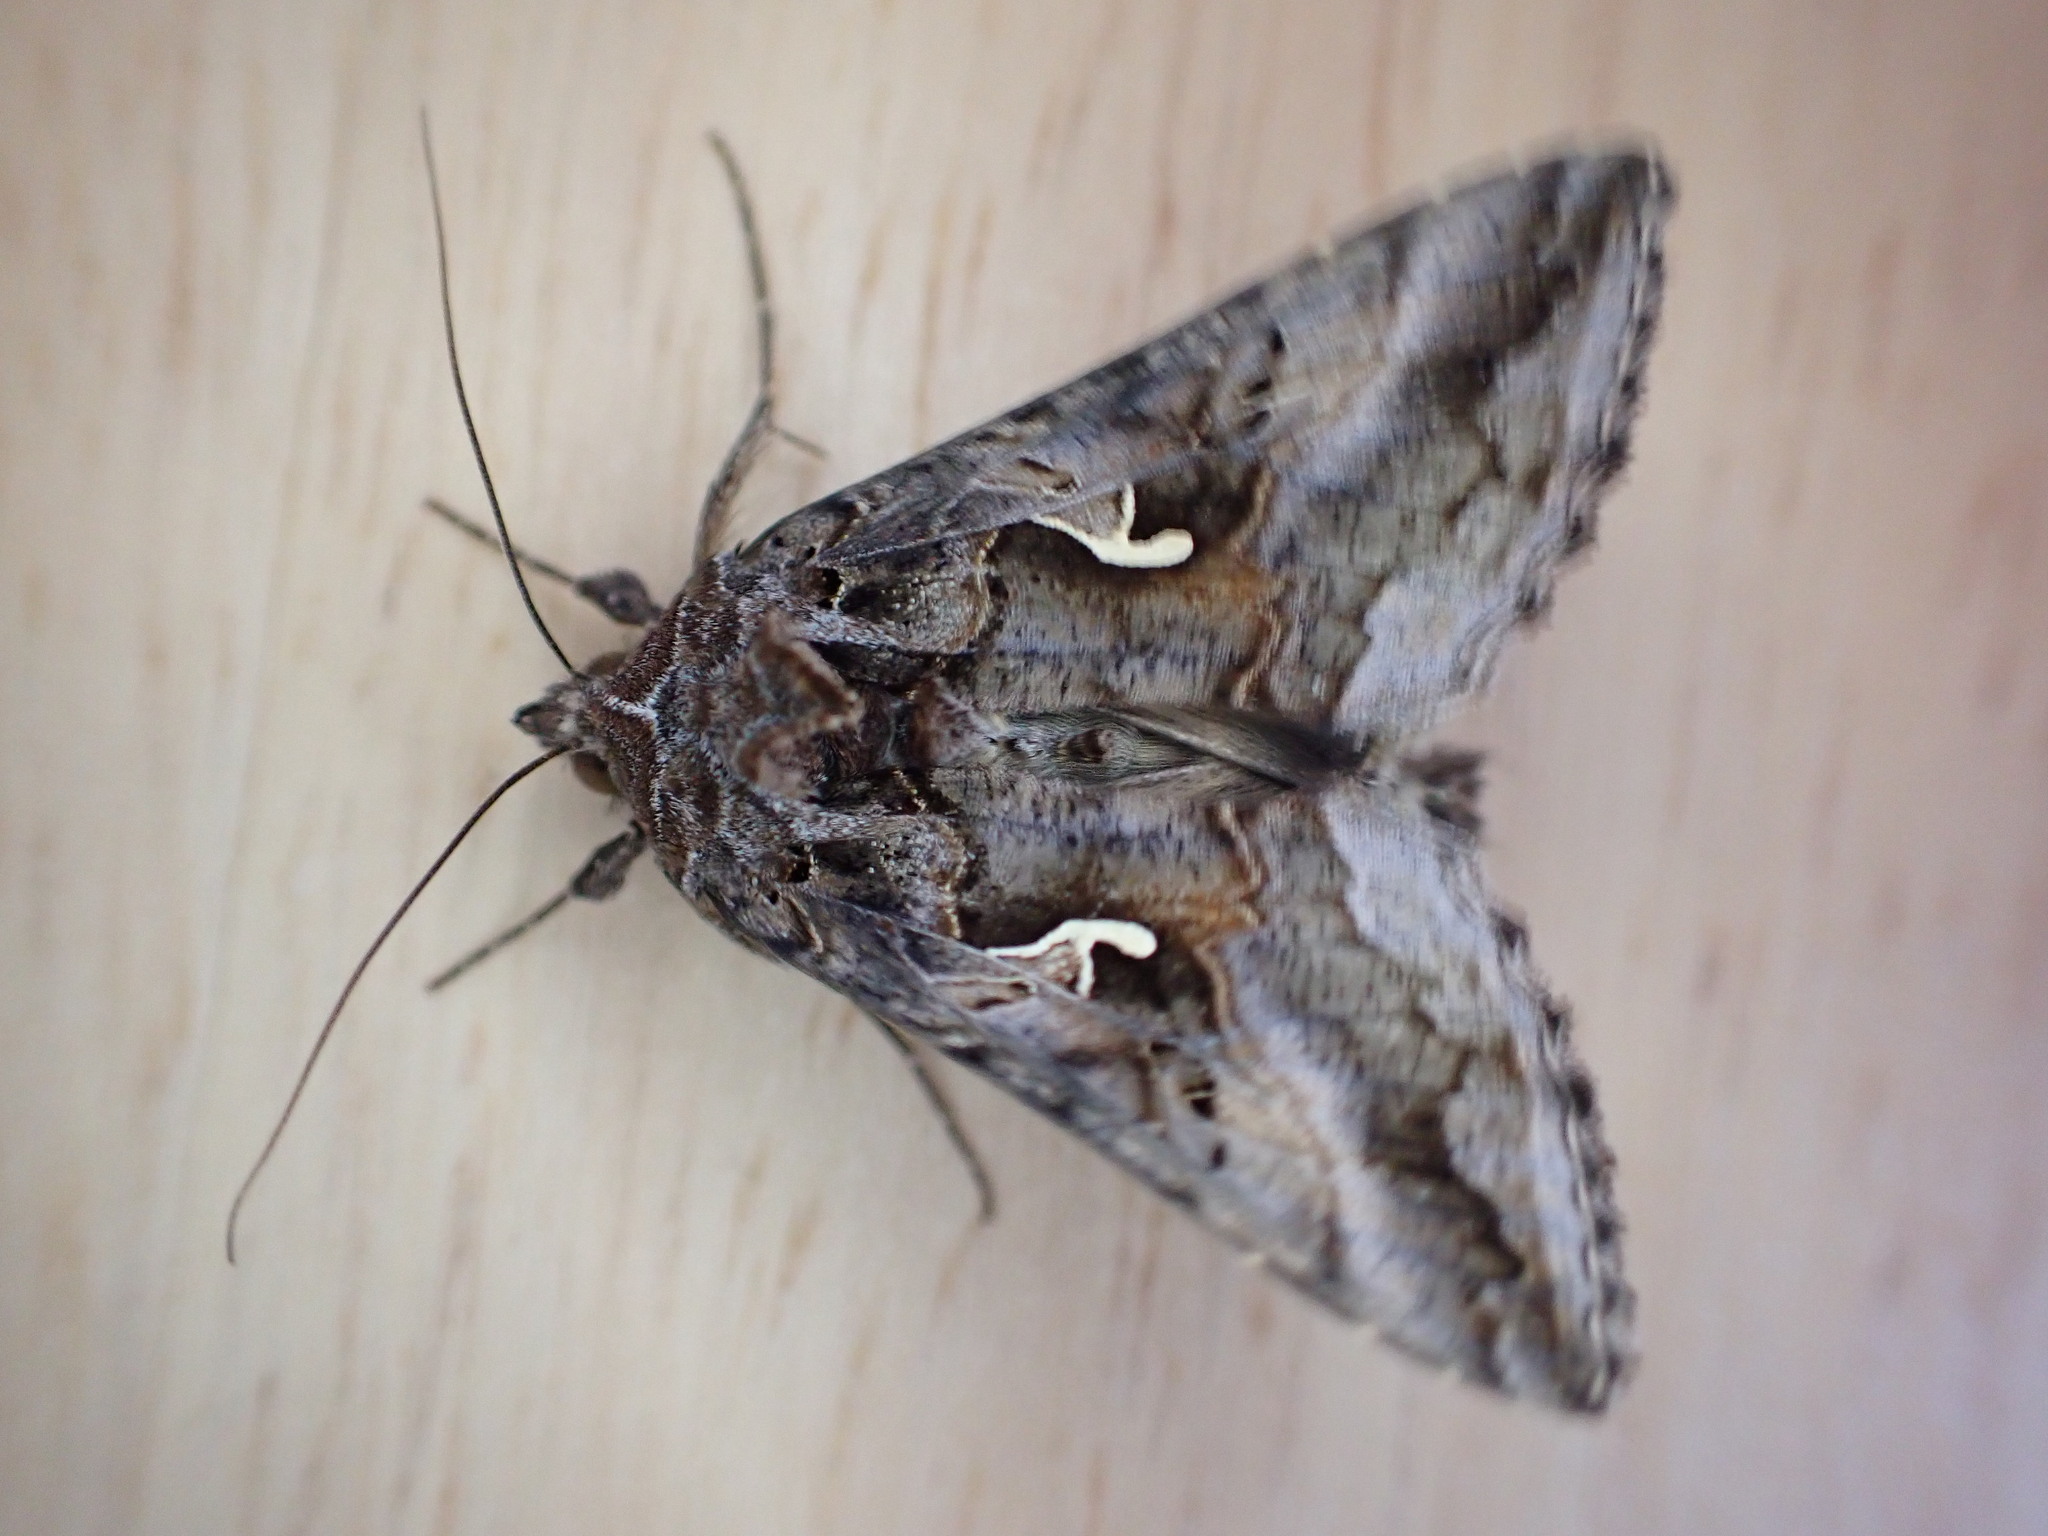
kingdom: Animalia
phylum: Arthropoda
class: Insecta
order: Lepidoptera
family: Noctuidae
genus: Autographa
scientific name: Autographa gamma
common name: Silver y
